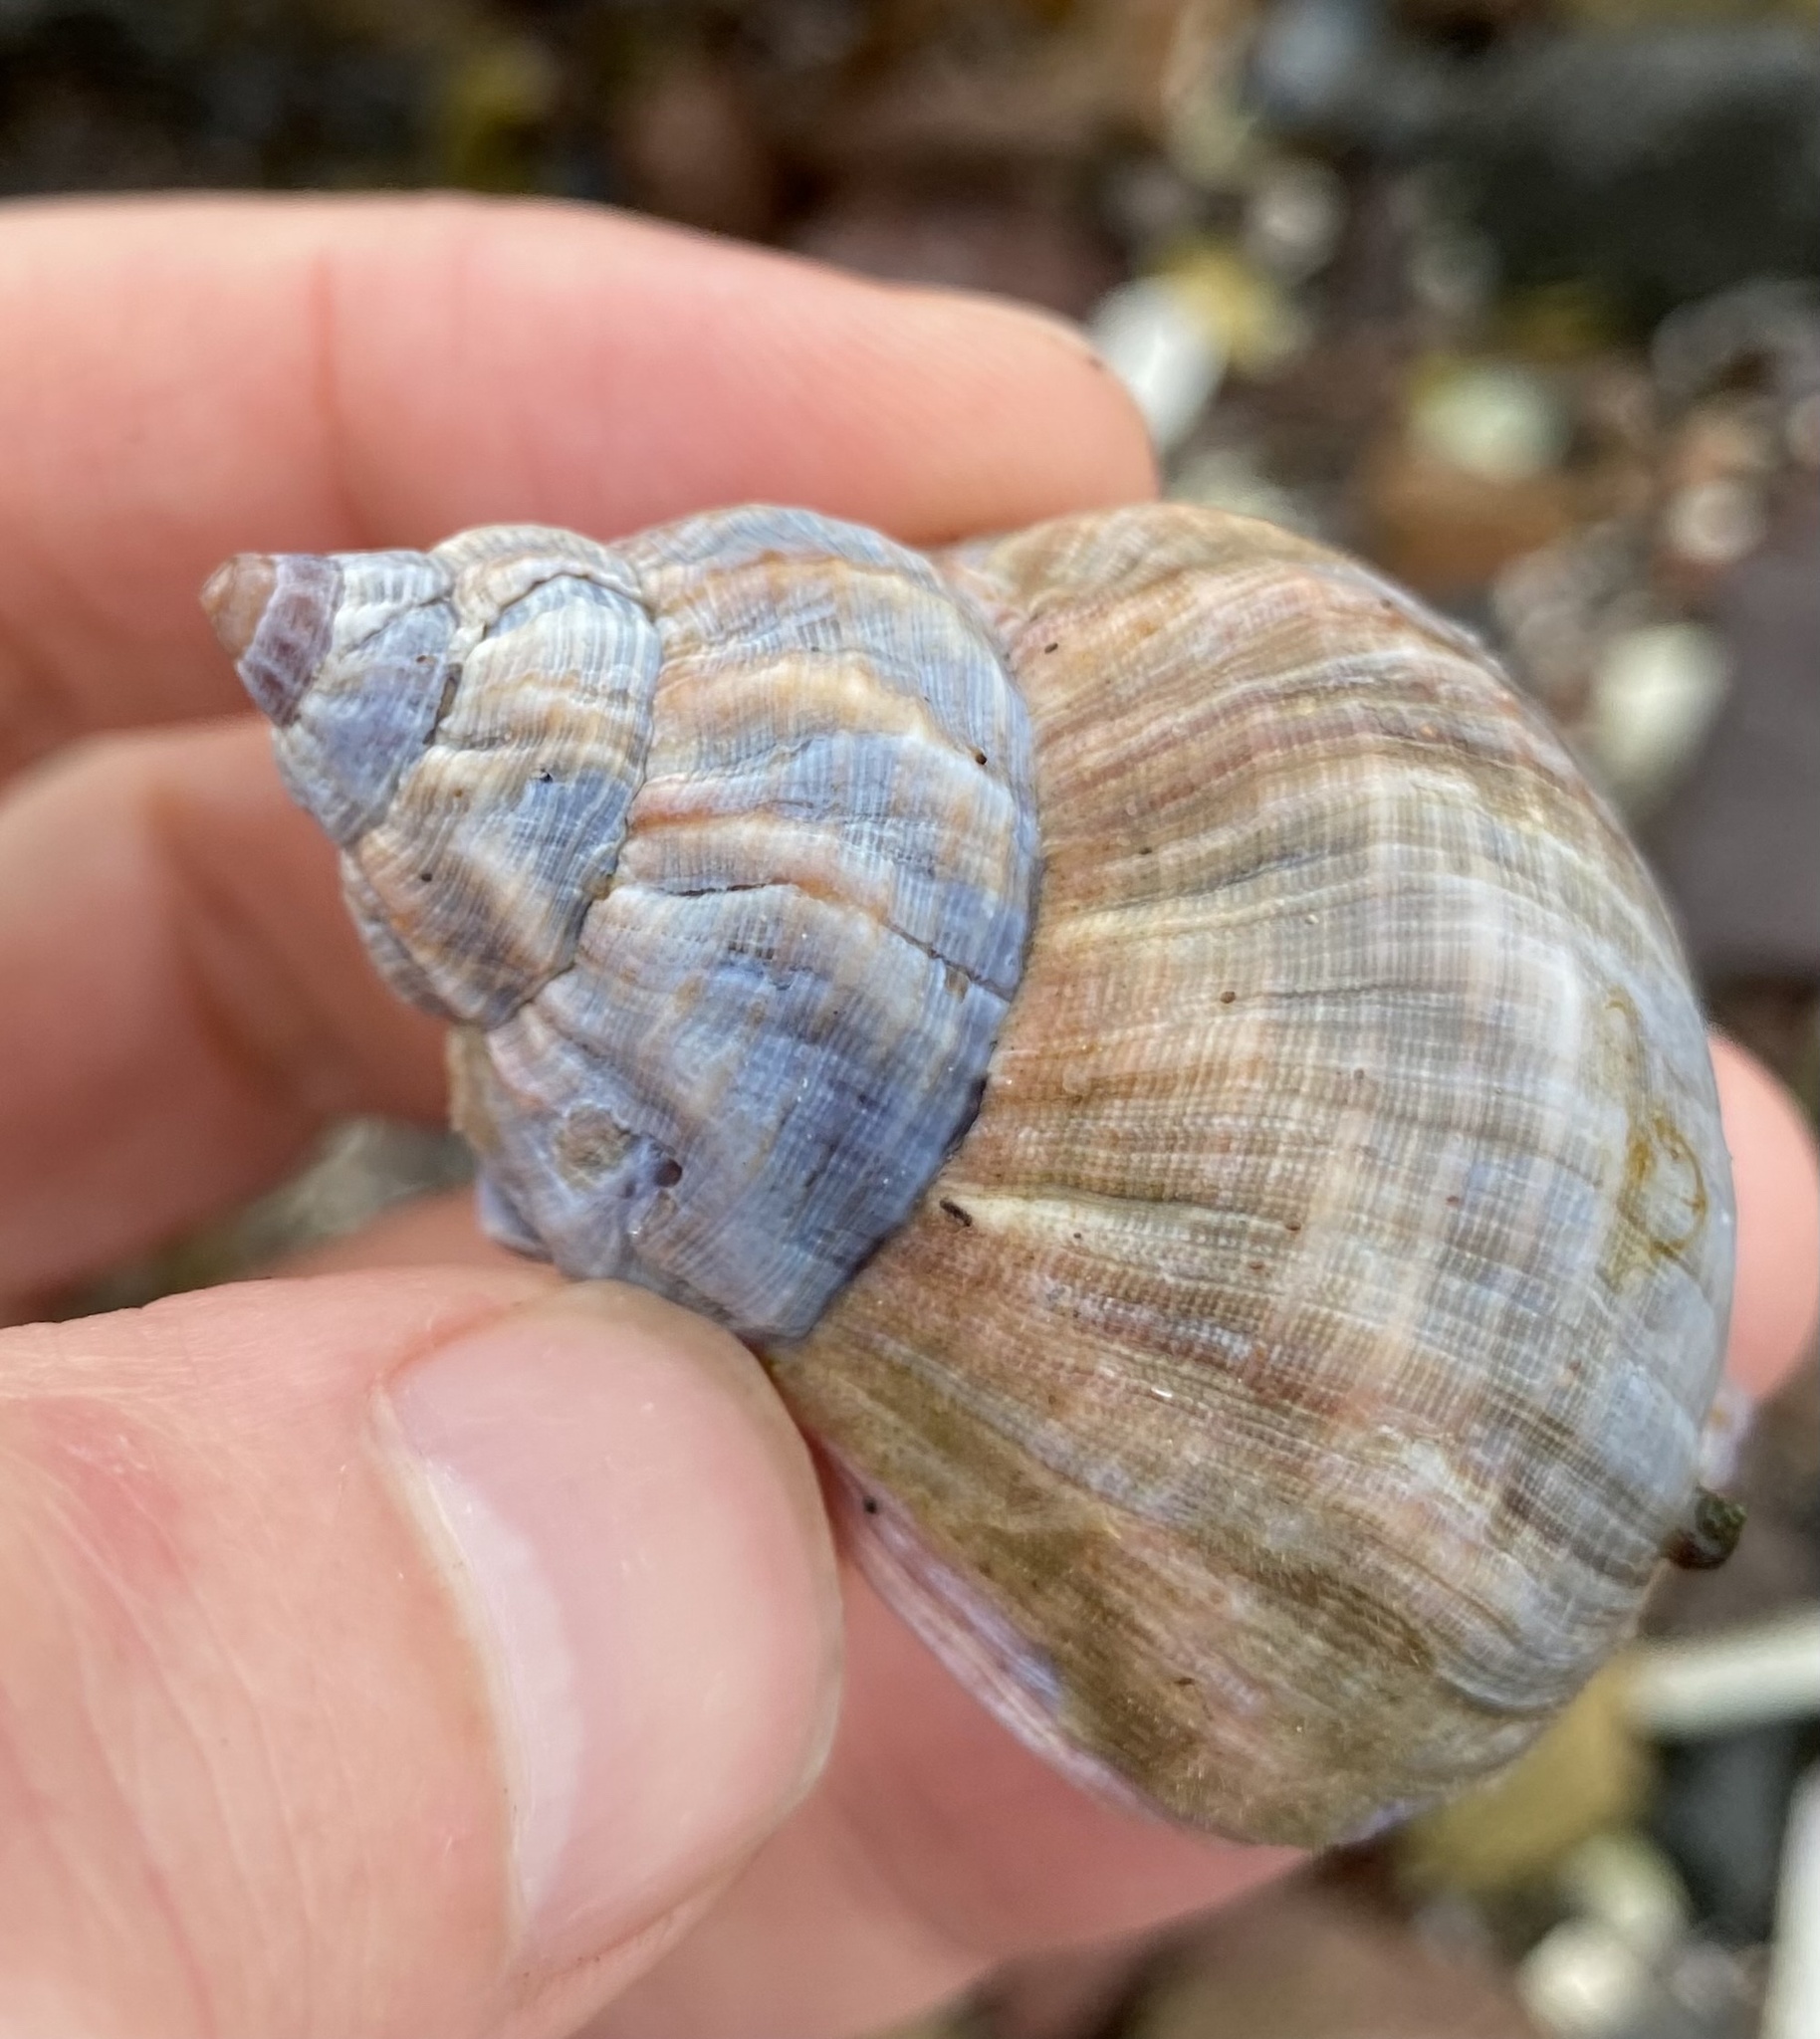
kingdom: Animalia
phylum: Mollusca
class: Gastropoda
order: Neogastropoda
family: Buccinidae
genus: Buccinum
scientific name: Buccinum undatum
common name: Common whelk
